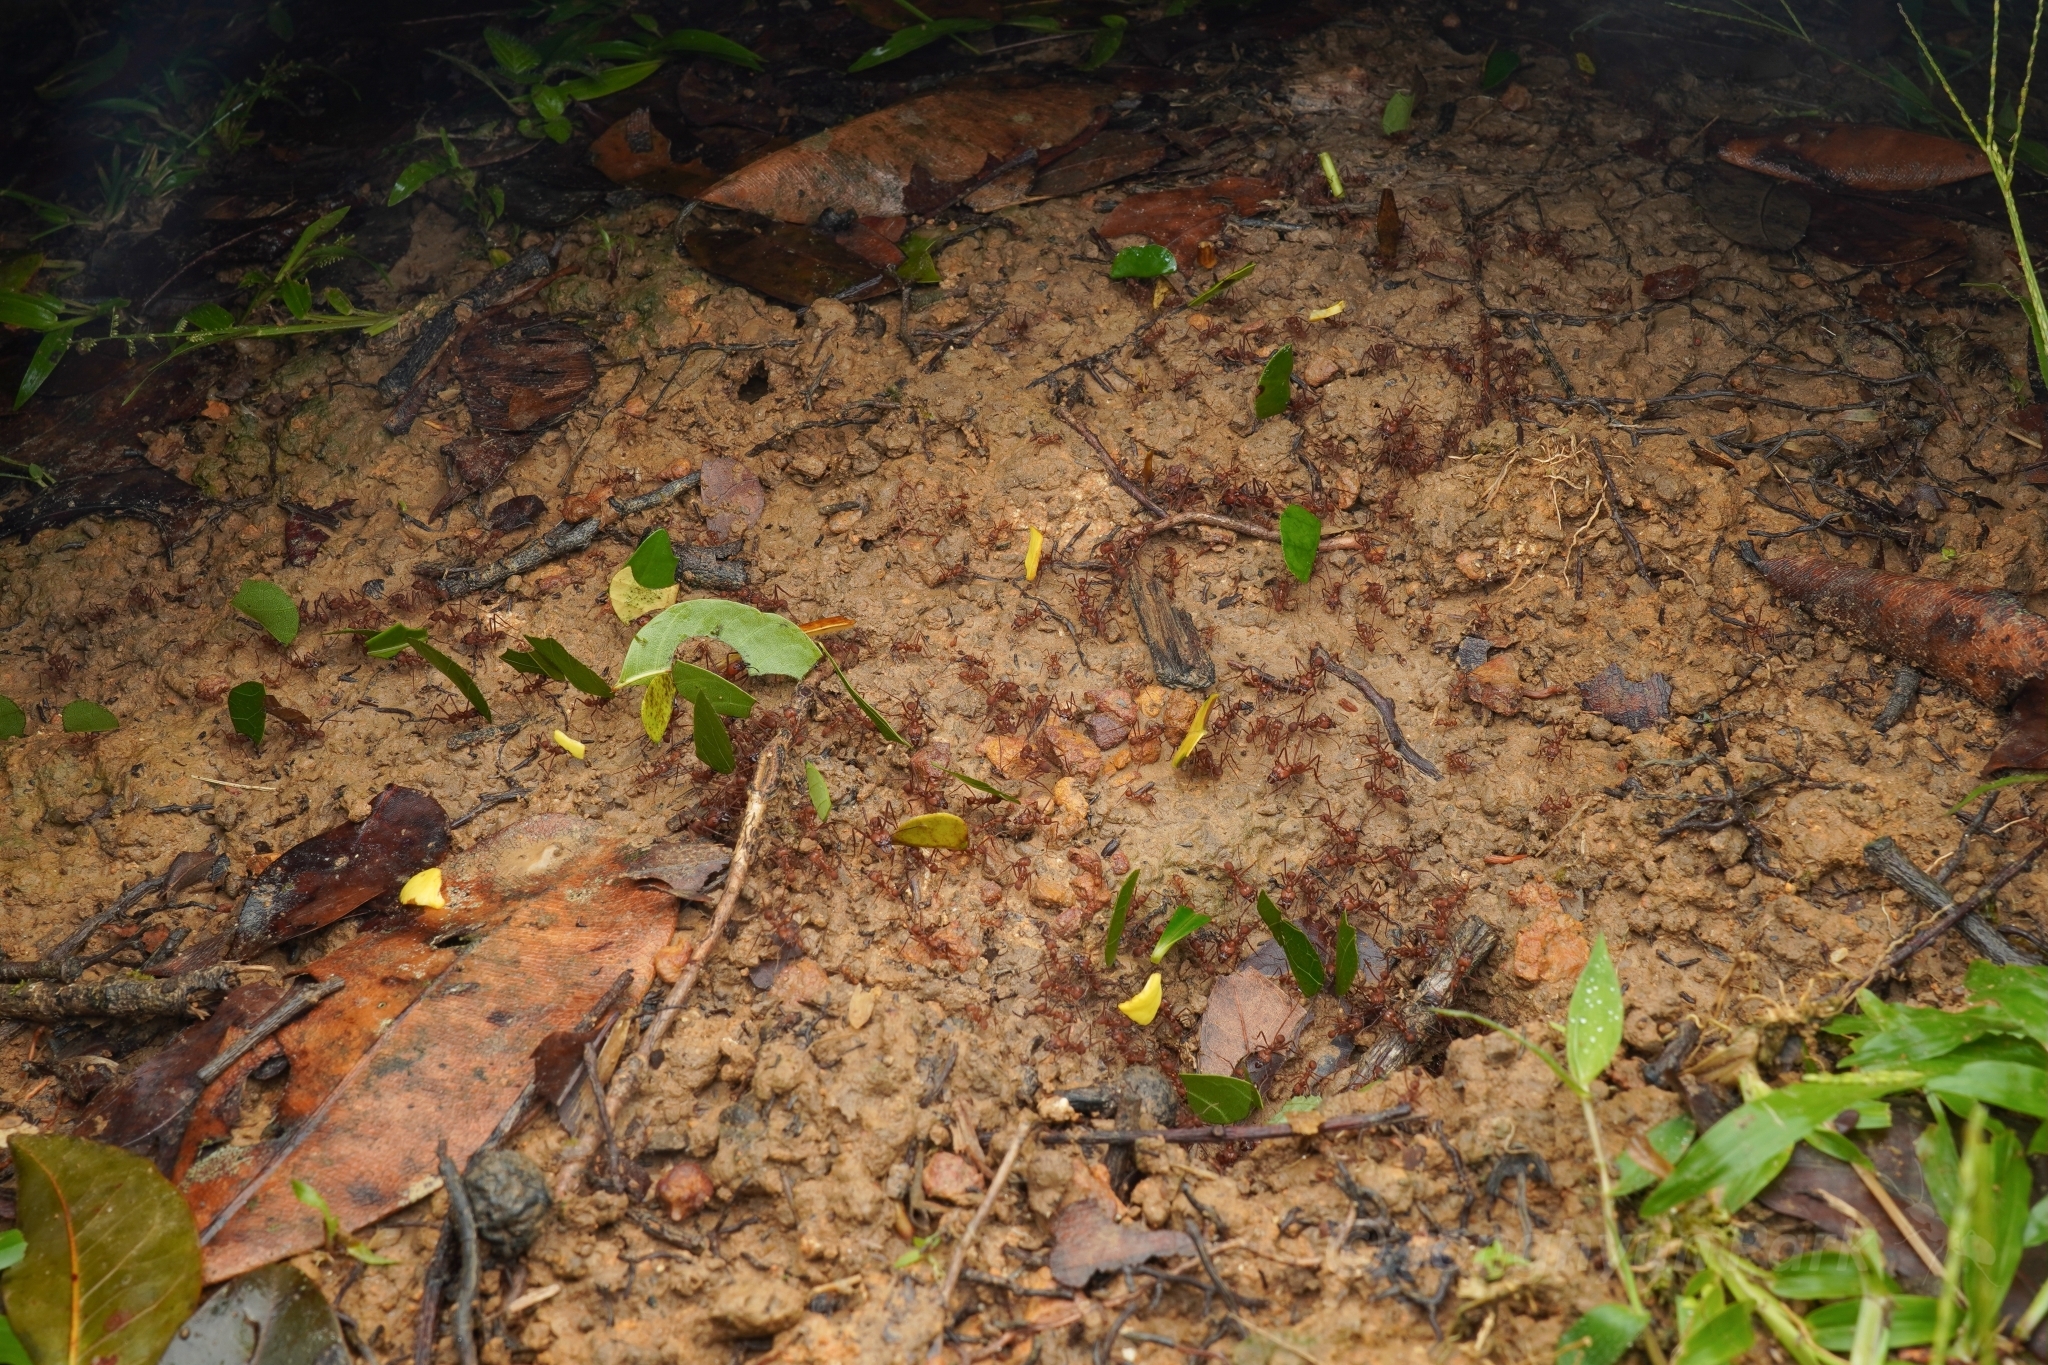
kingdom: Animalia
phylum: Arthropoda
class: Insecta
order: Hymenoptera
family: Formicidae
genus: Atta
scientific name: Atta cephalotes
